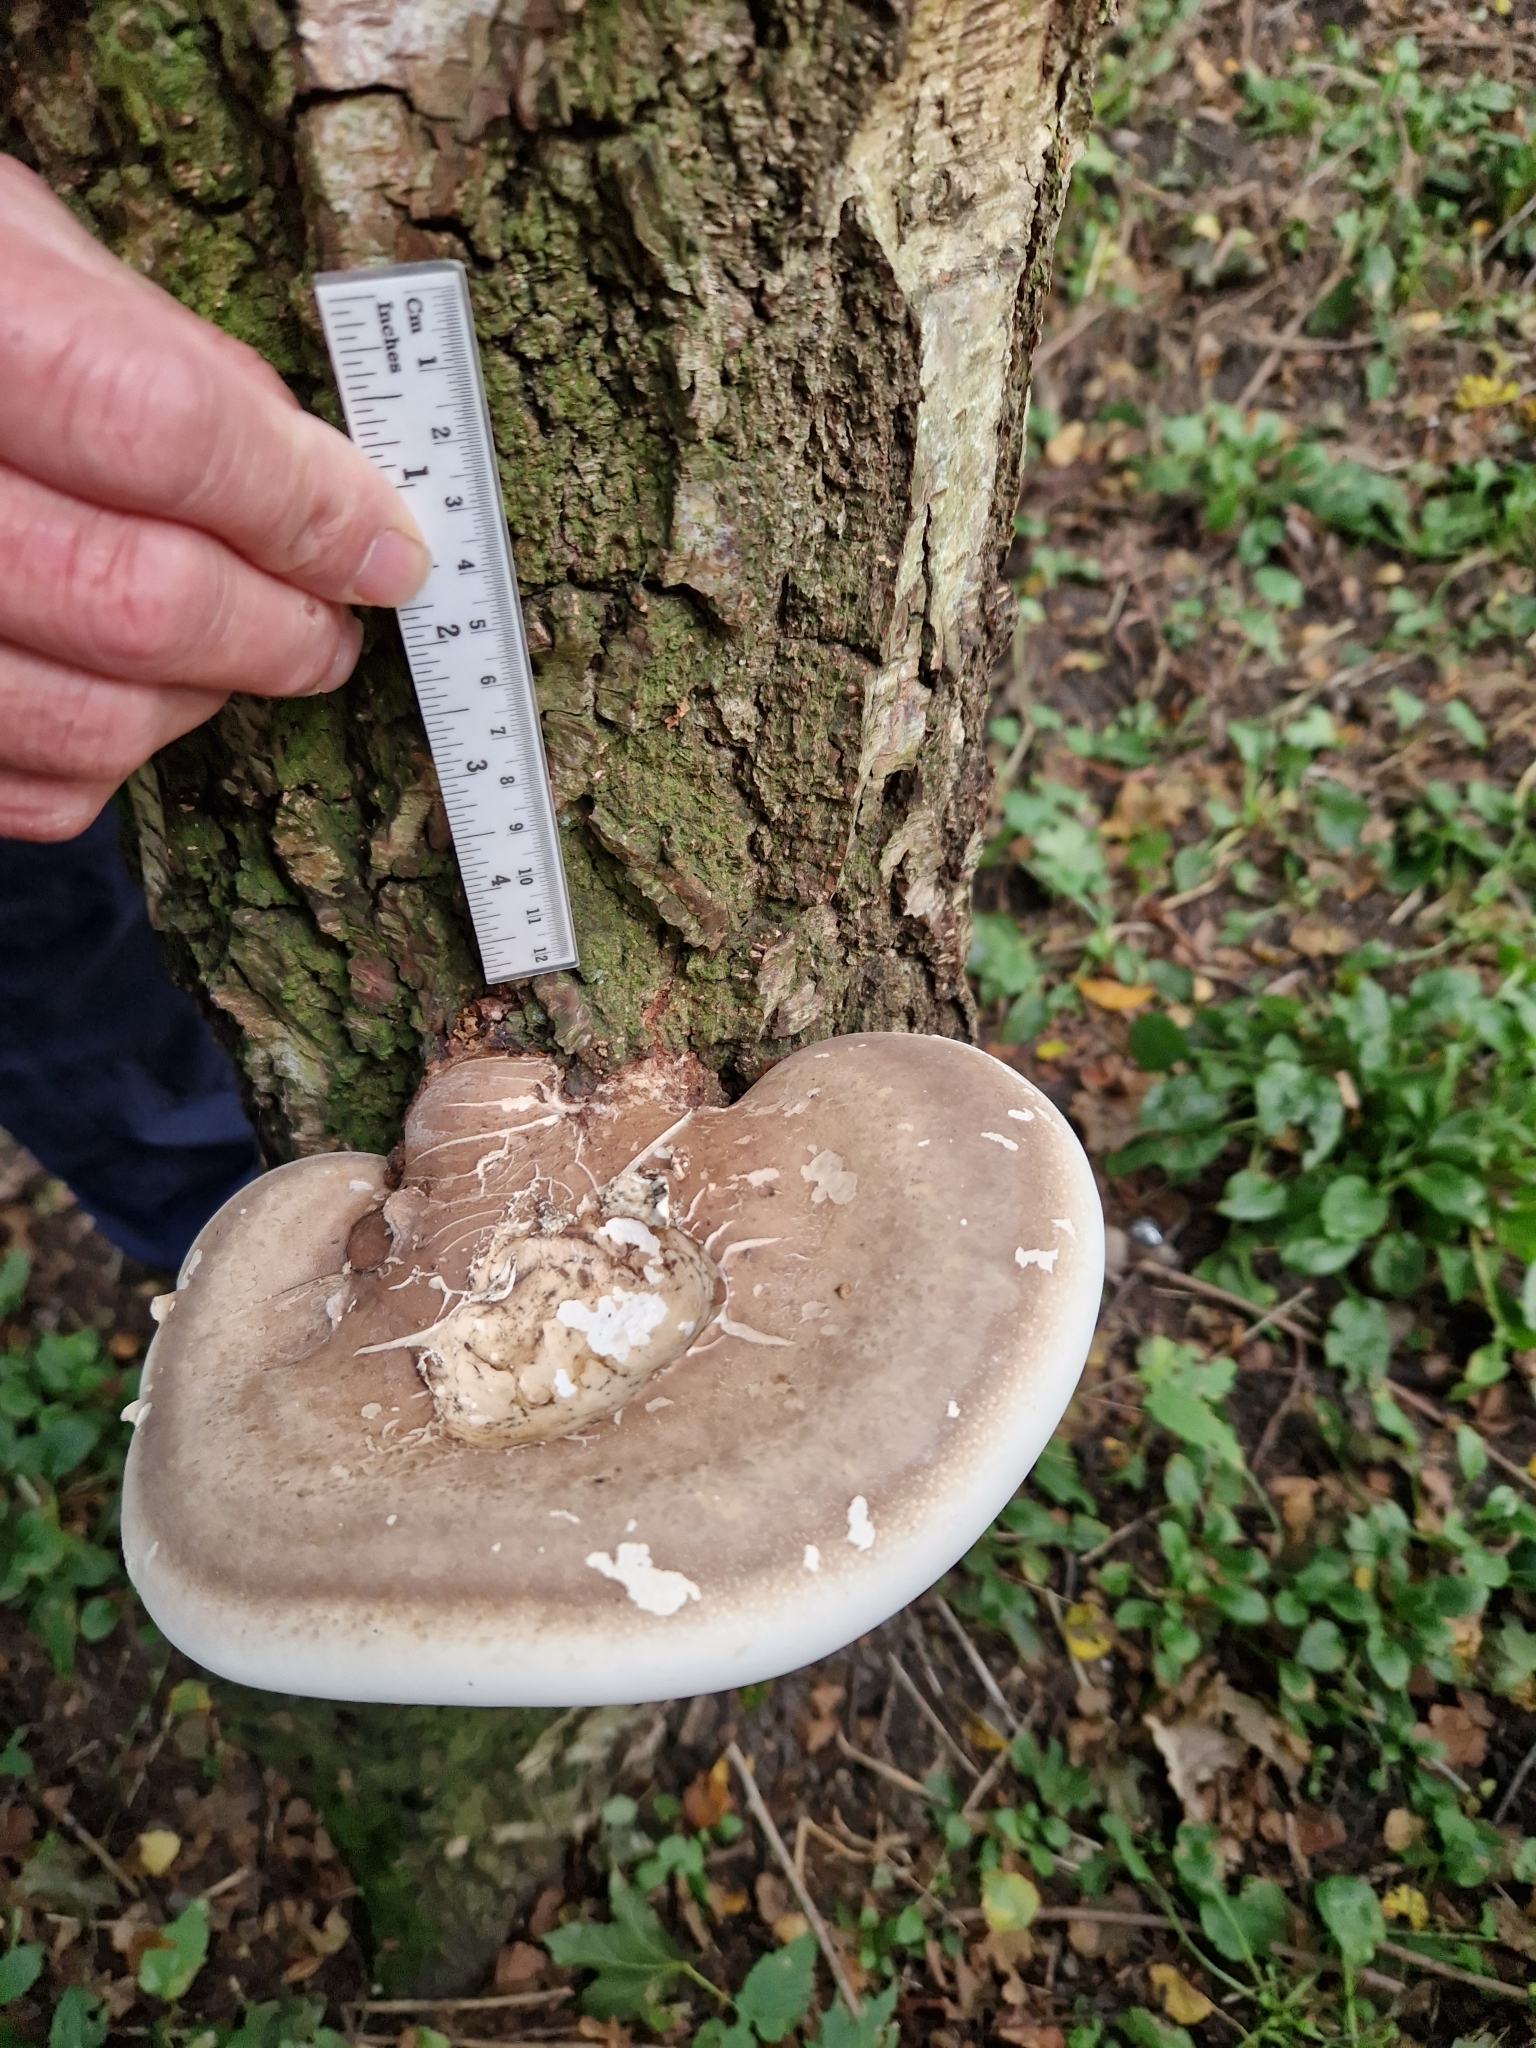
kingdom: Fungi
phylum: Basidiomycota
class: Agaricomycetes
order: Polyporales
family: Fomitopsidaceae
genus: Fomitopsis
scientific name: Fomitopsis betulina
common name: Birch polypore
